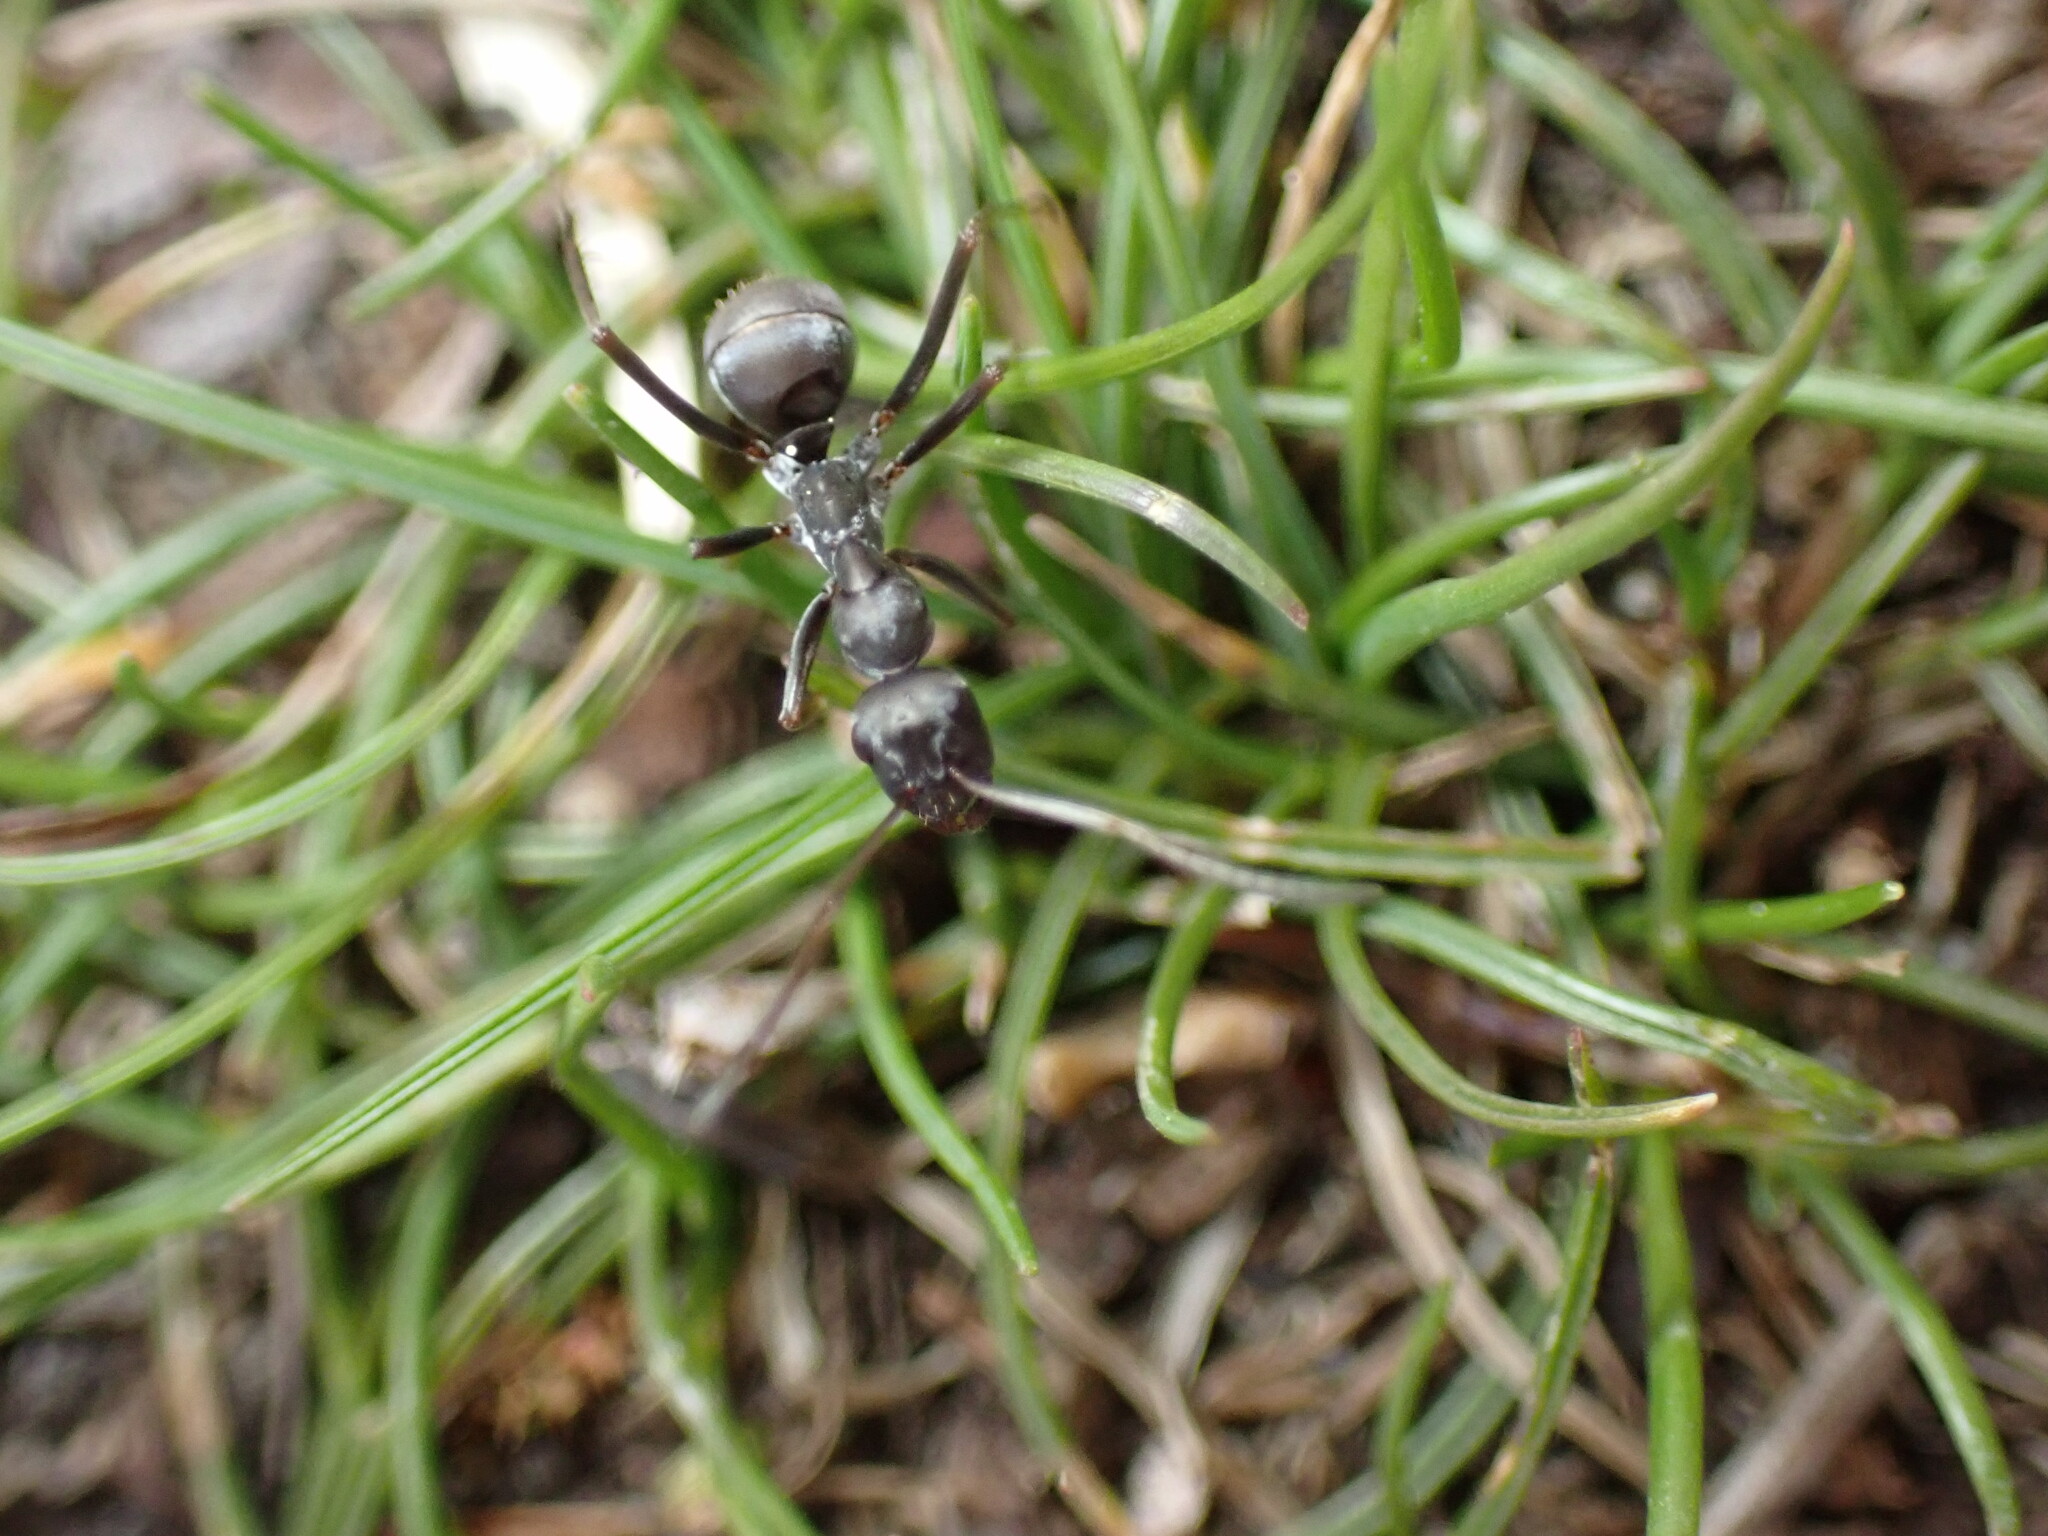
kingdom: Animalia
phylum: Arthropoda
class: Insecta
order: Hymenoptera
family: Formicidae
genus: Formica
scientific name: Formica japonica
